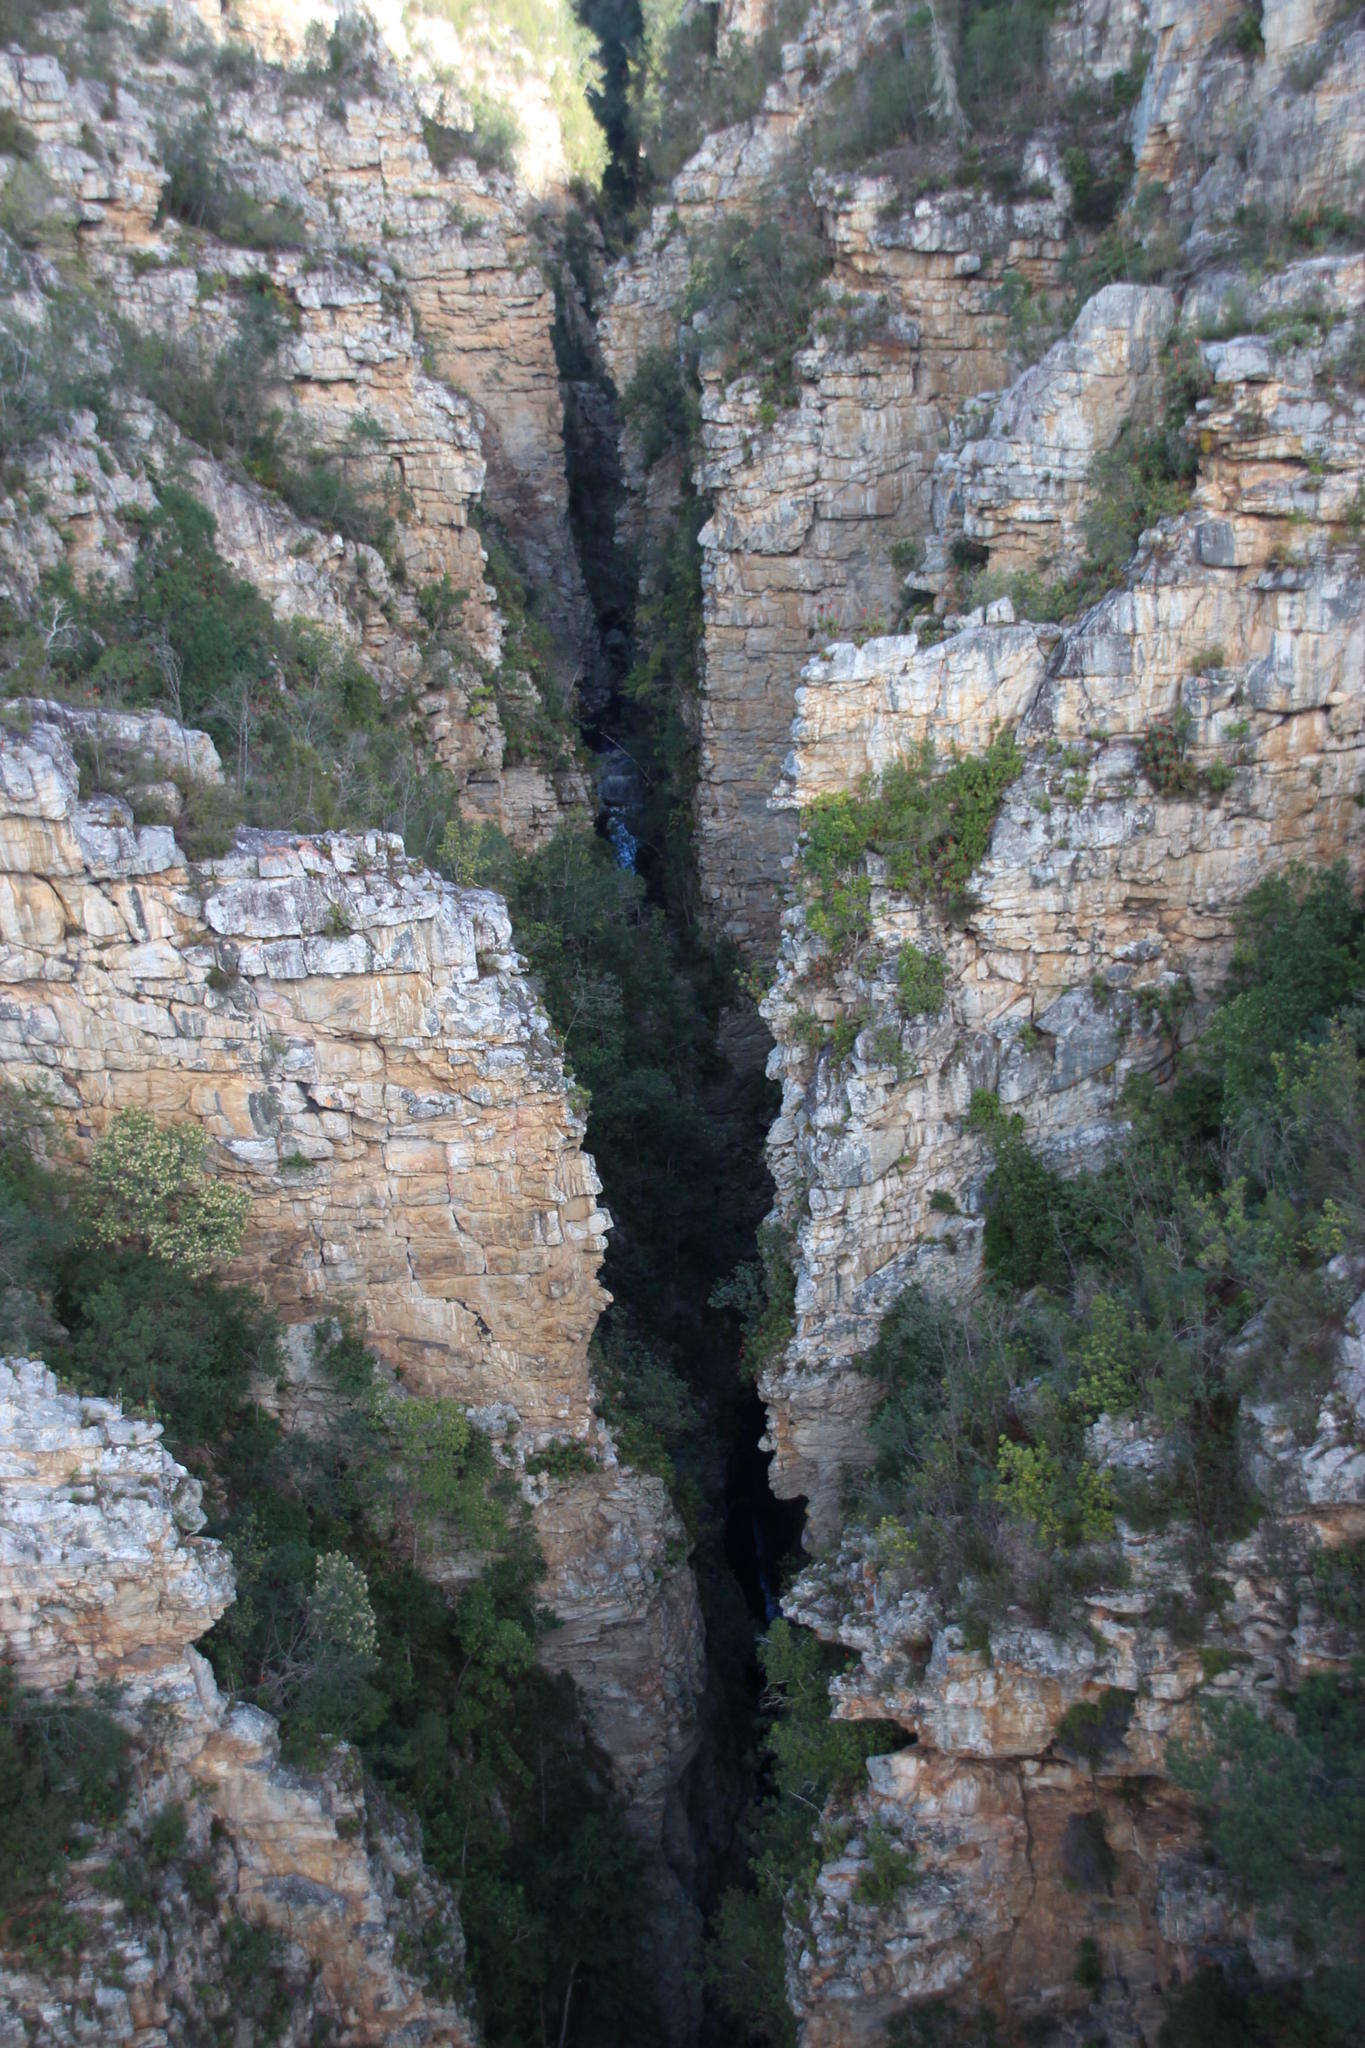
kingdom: Plantae
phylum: Tracheophyta
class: Liliopsida
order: Asparagales
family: Asphodelaceae
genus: Aloe
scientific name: Aloe arborescens
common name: Candelabra aloe
